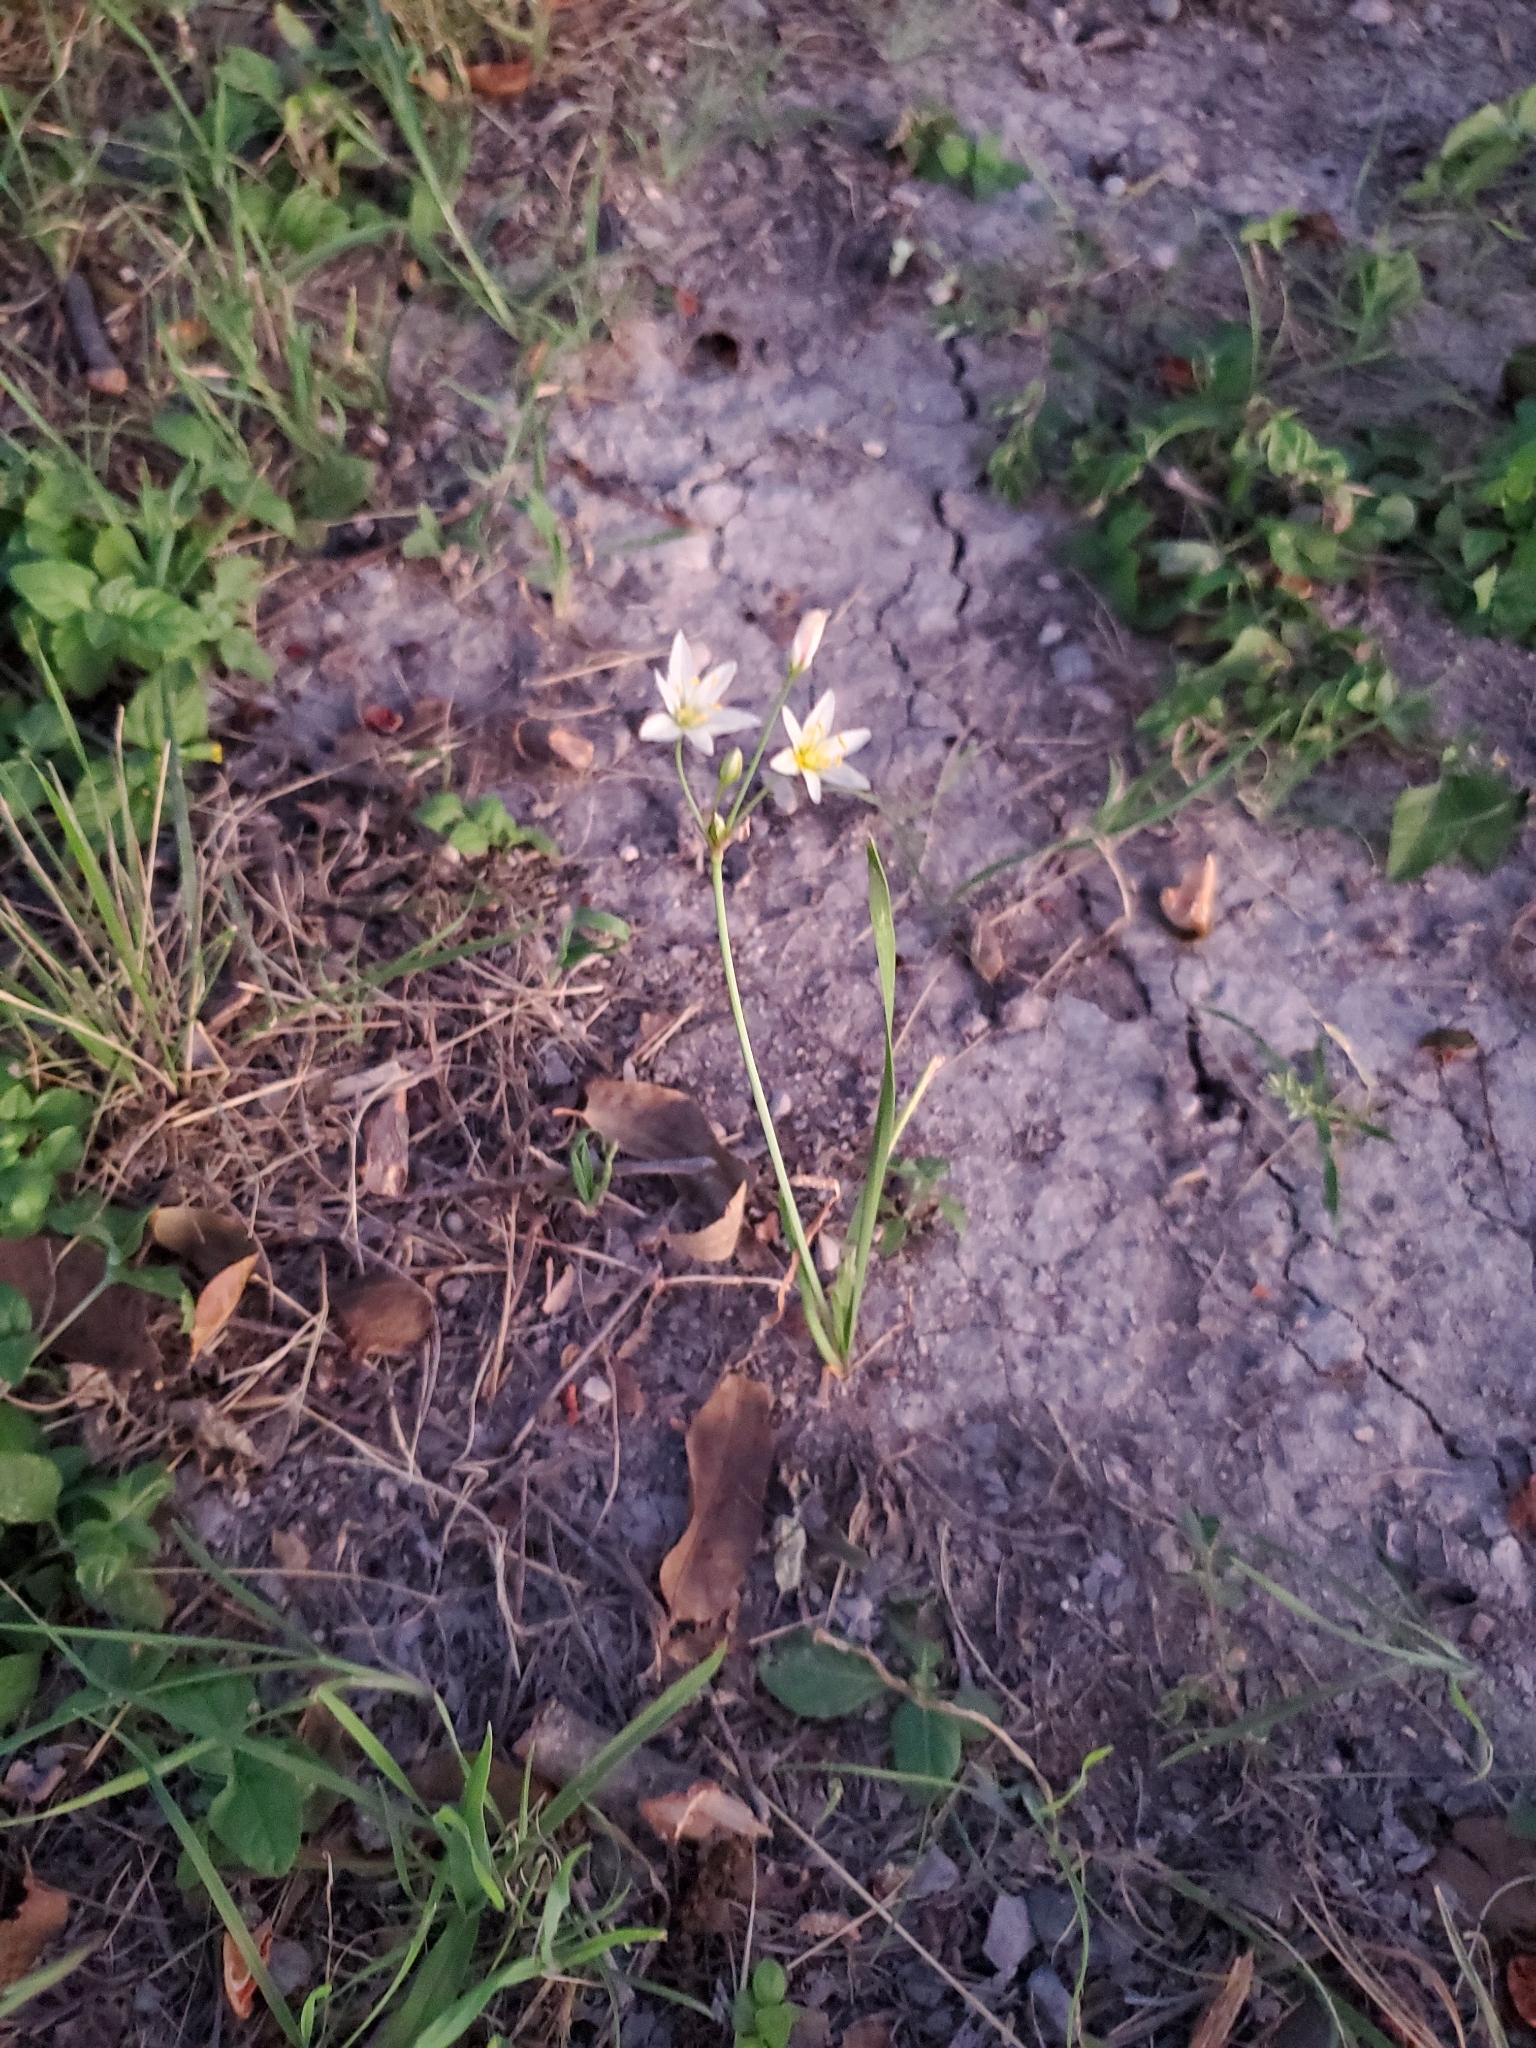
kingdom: Plantae
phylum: Tracheophyta
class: Liliopsida
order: Asparagales
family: Amaryllidaceae
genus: Nothoscordum
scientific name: Nothoscordum bivalve
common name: Crow-poison
